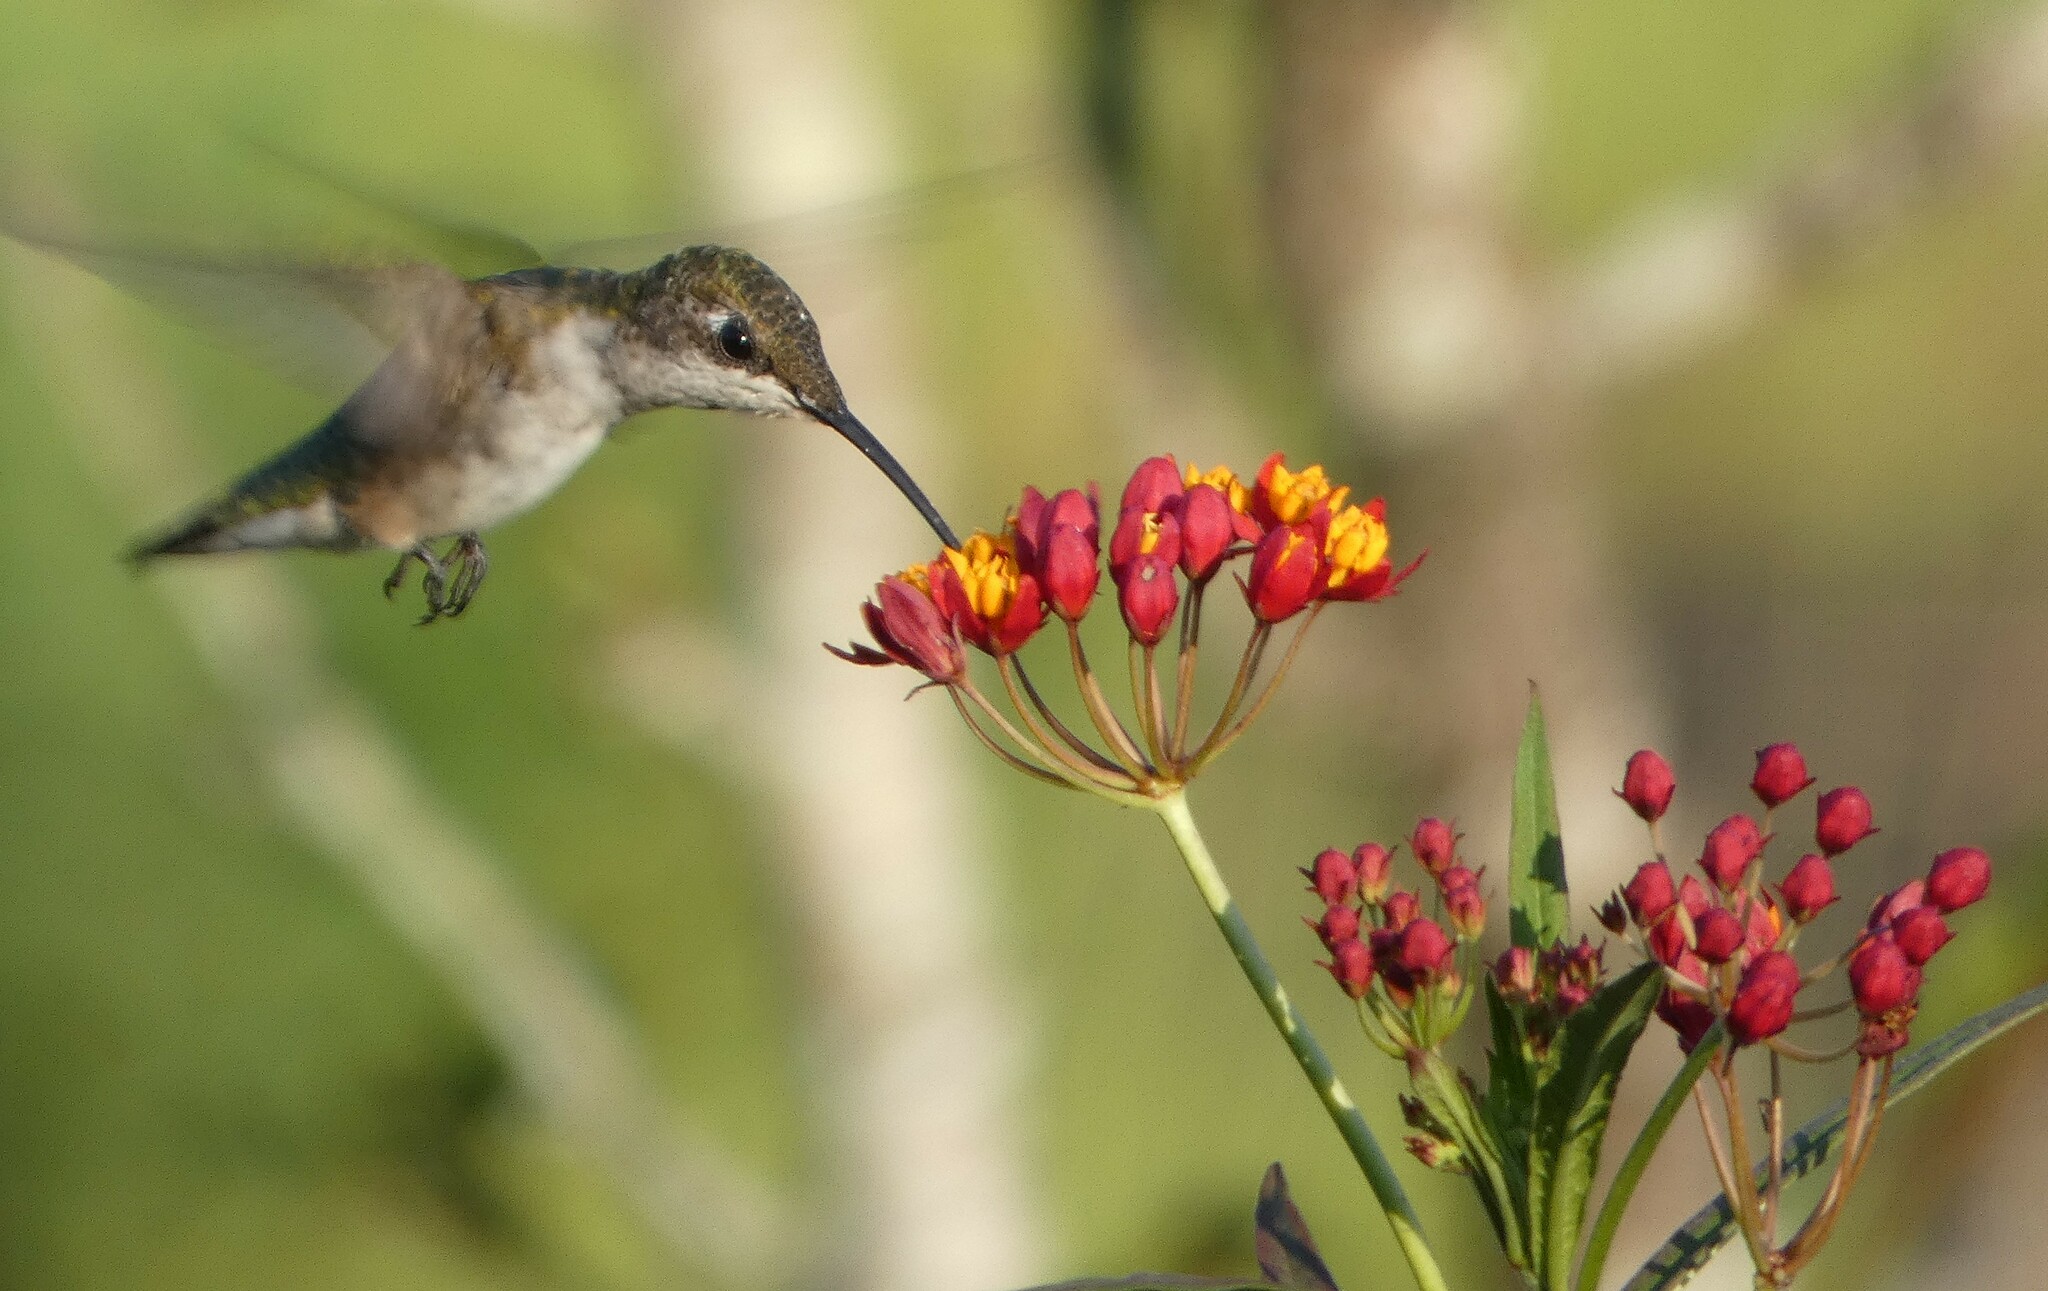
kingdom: Animalia
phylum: Chordata
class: Aves
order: Apodiformes
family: Trochilidae
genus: Archilochus
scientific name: Archilochus colubris
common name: Ruby-throated hummingbird
